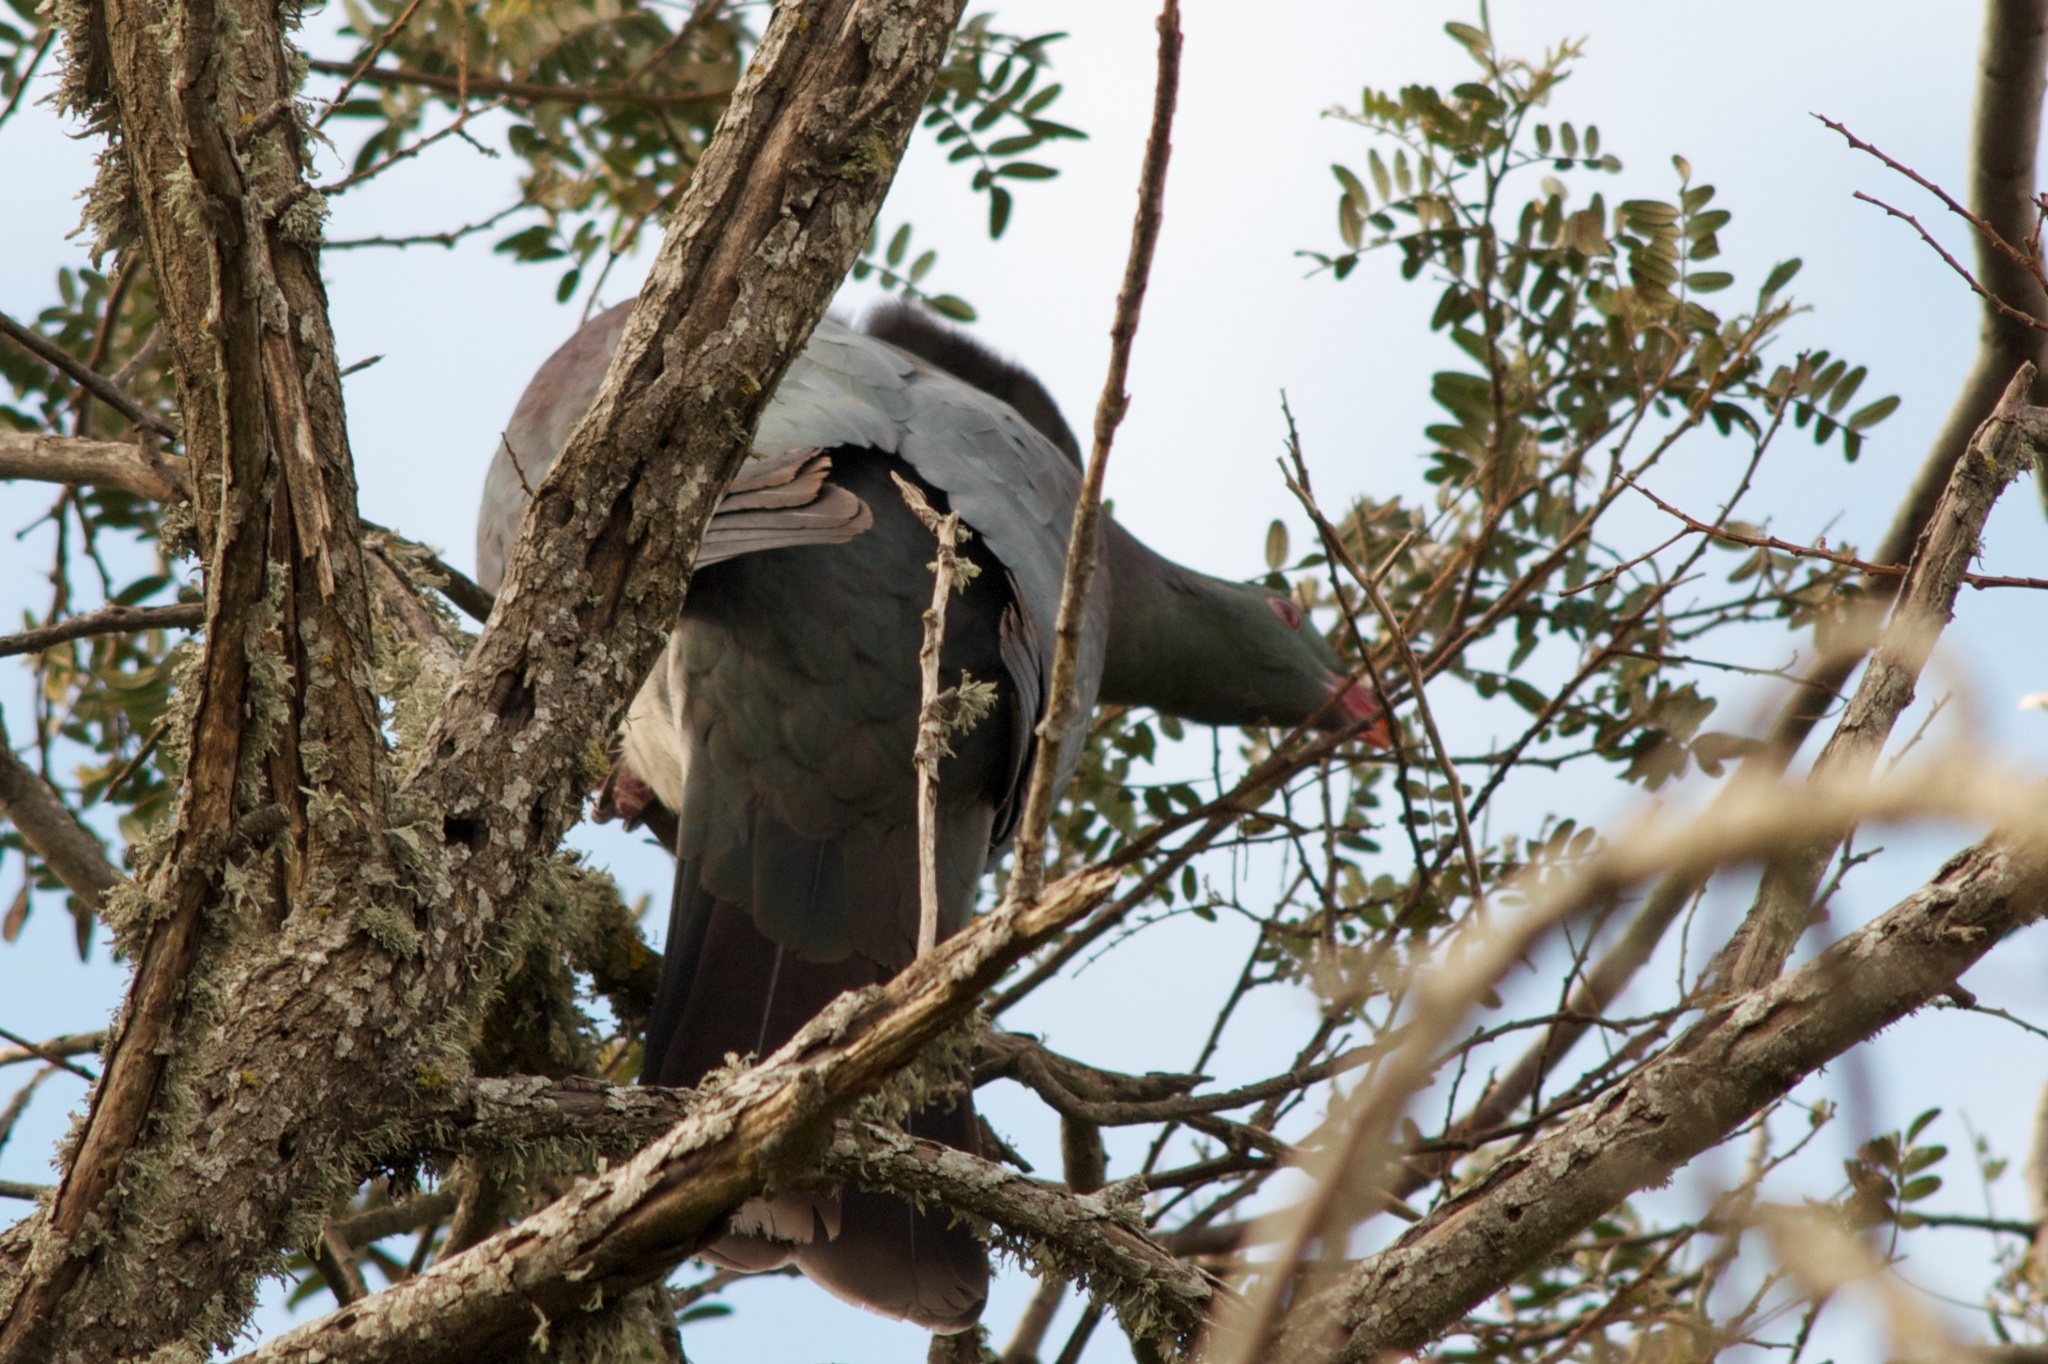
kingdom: Animalia
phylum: Chordata
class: Aves
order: Columbiformes
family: Columbidae
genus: Hemiphaga
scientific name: Hemiphaga novaeseelandiae
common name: New zealand pigeon
